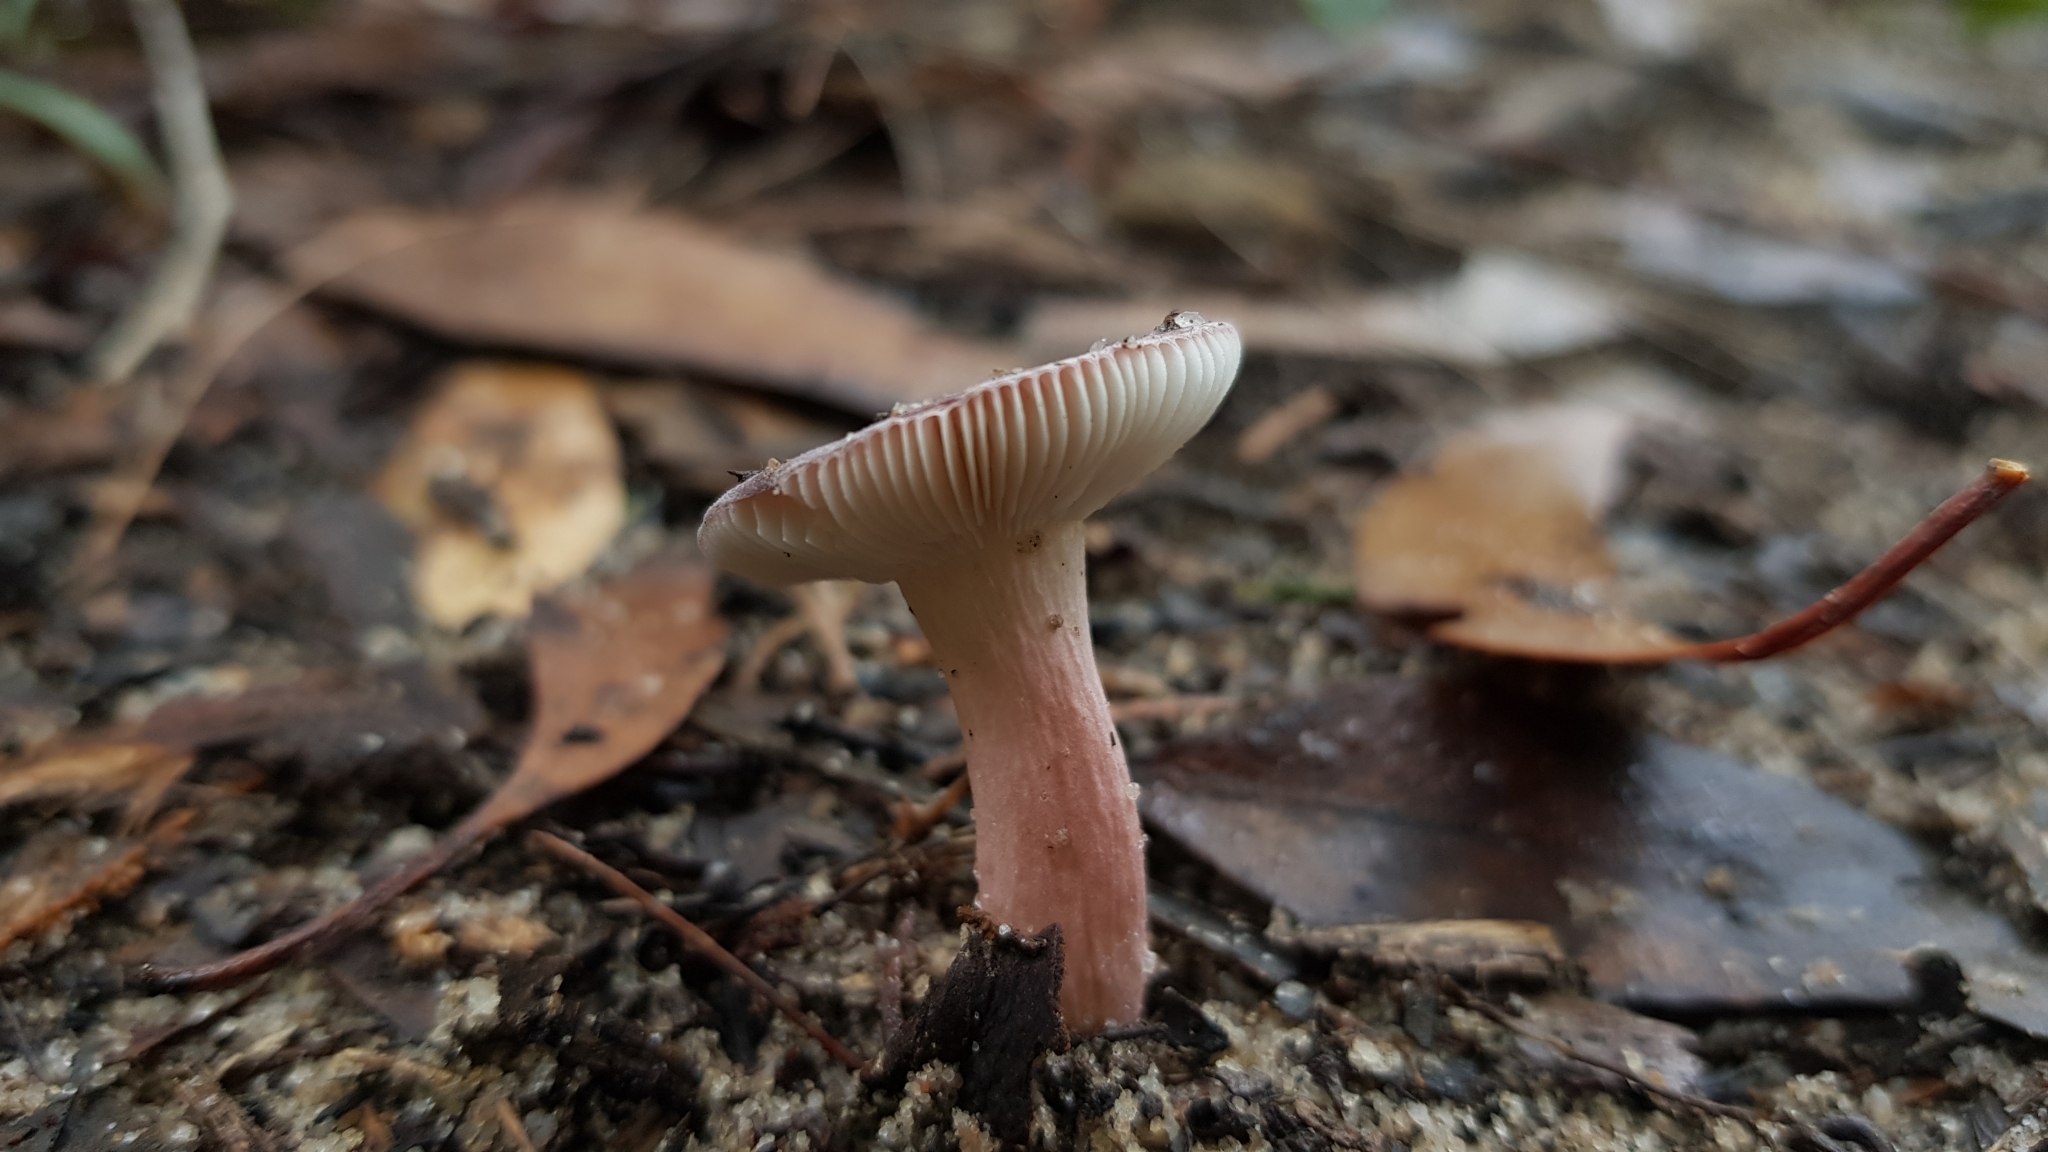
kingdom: Fungi
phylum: Basidiomycota
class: Agaricomycetes
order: Russulales
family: Russulaceae
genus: Russula
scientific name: Russula lenkunya
